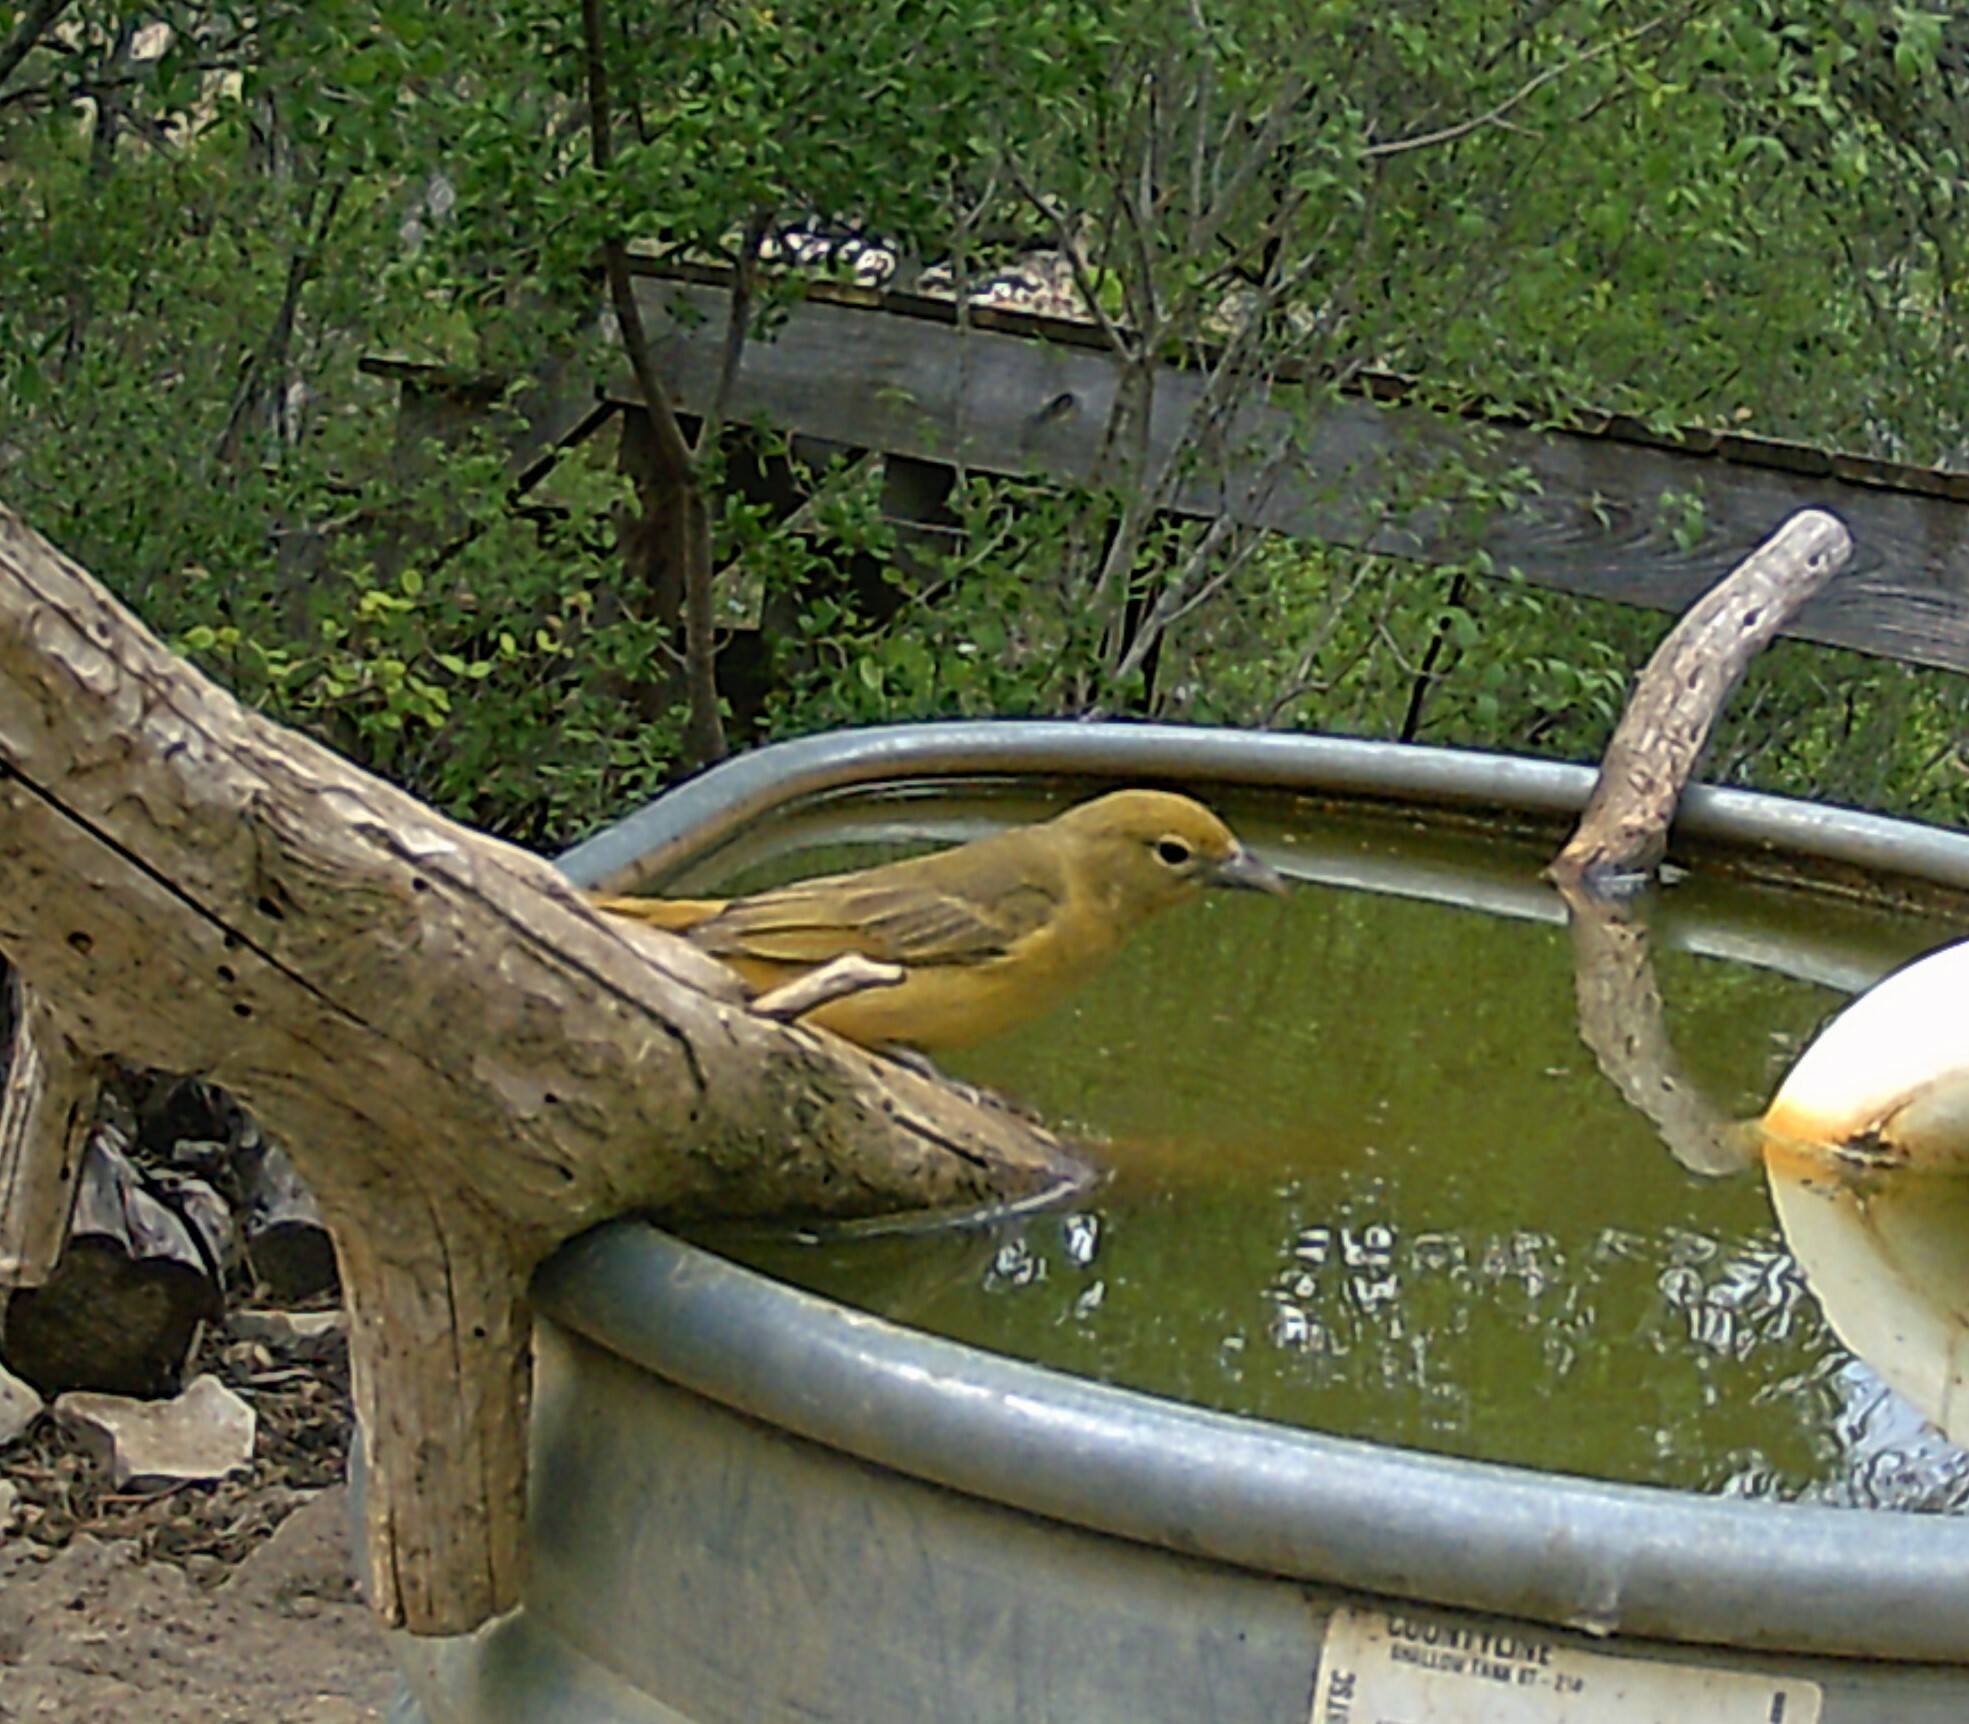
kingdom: Animalia
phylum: Chordata
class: Aves
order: Passeriformes
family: Cardinalidae
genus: Piranga
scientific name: Piranga rubra
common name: Summer tanager
